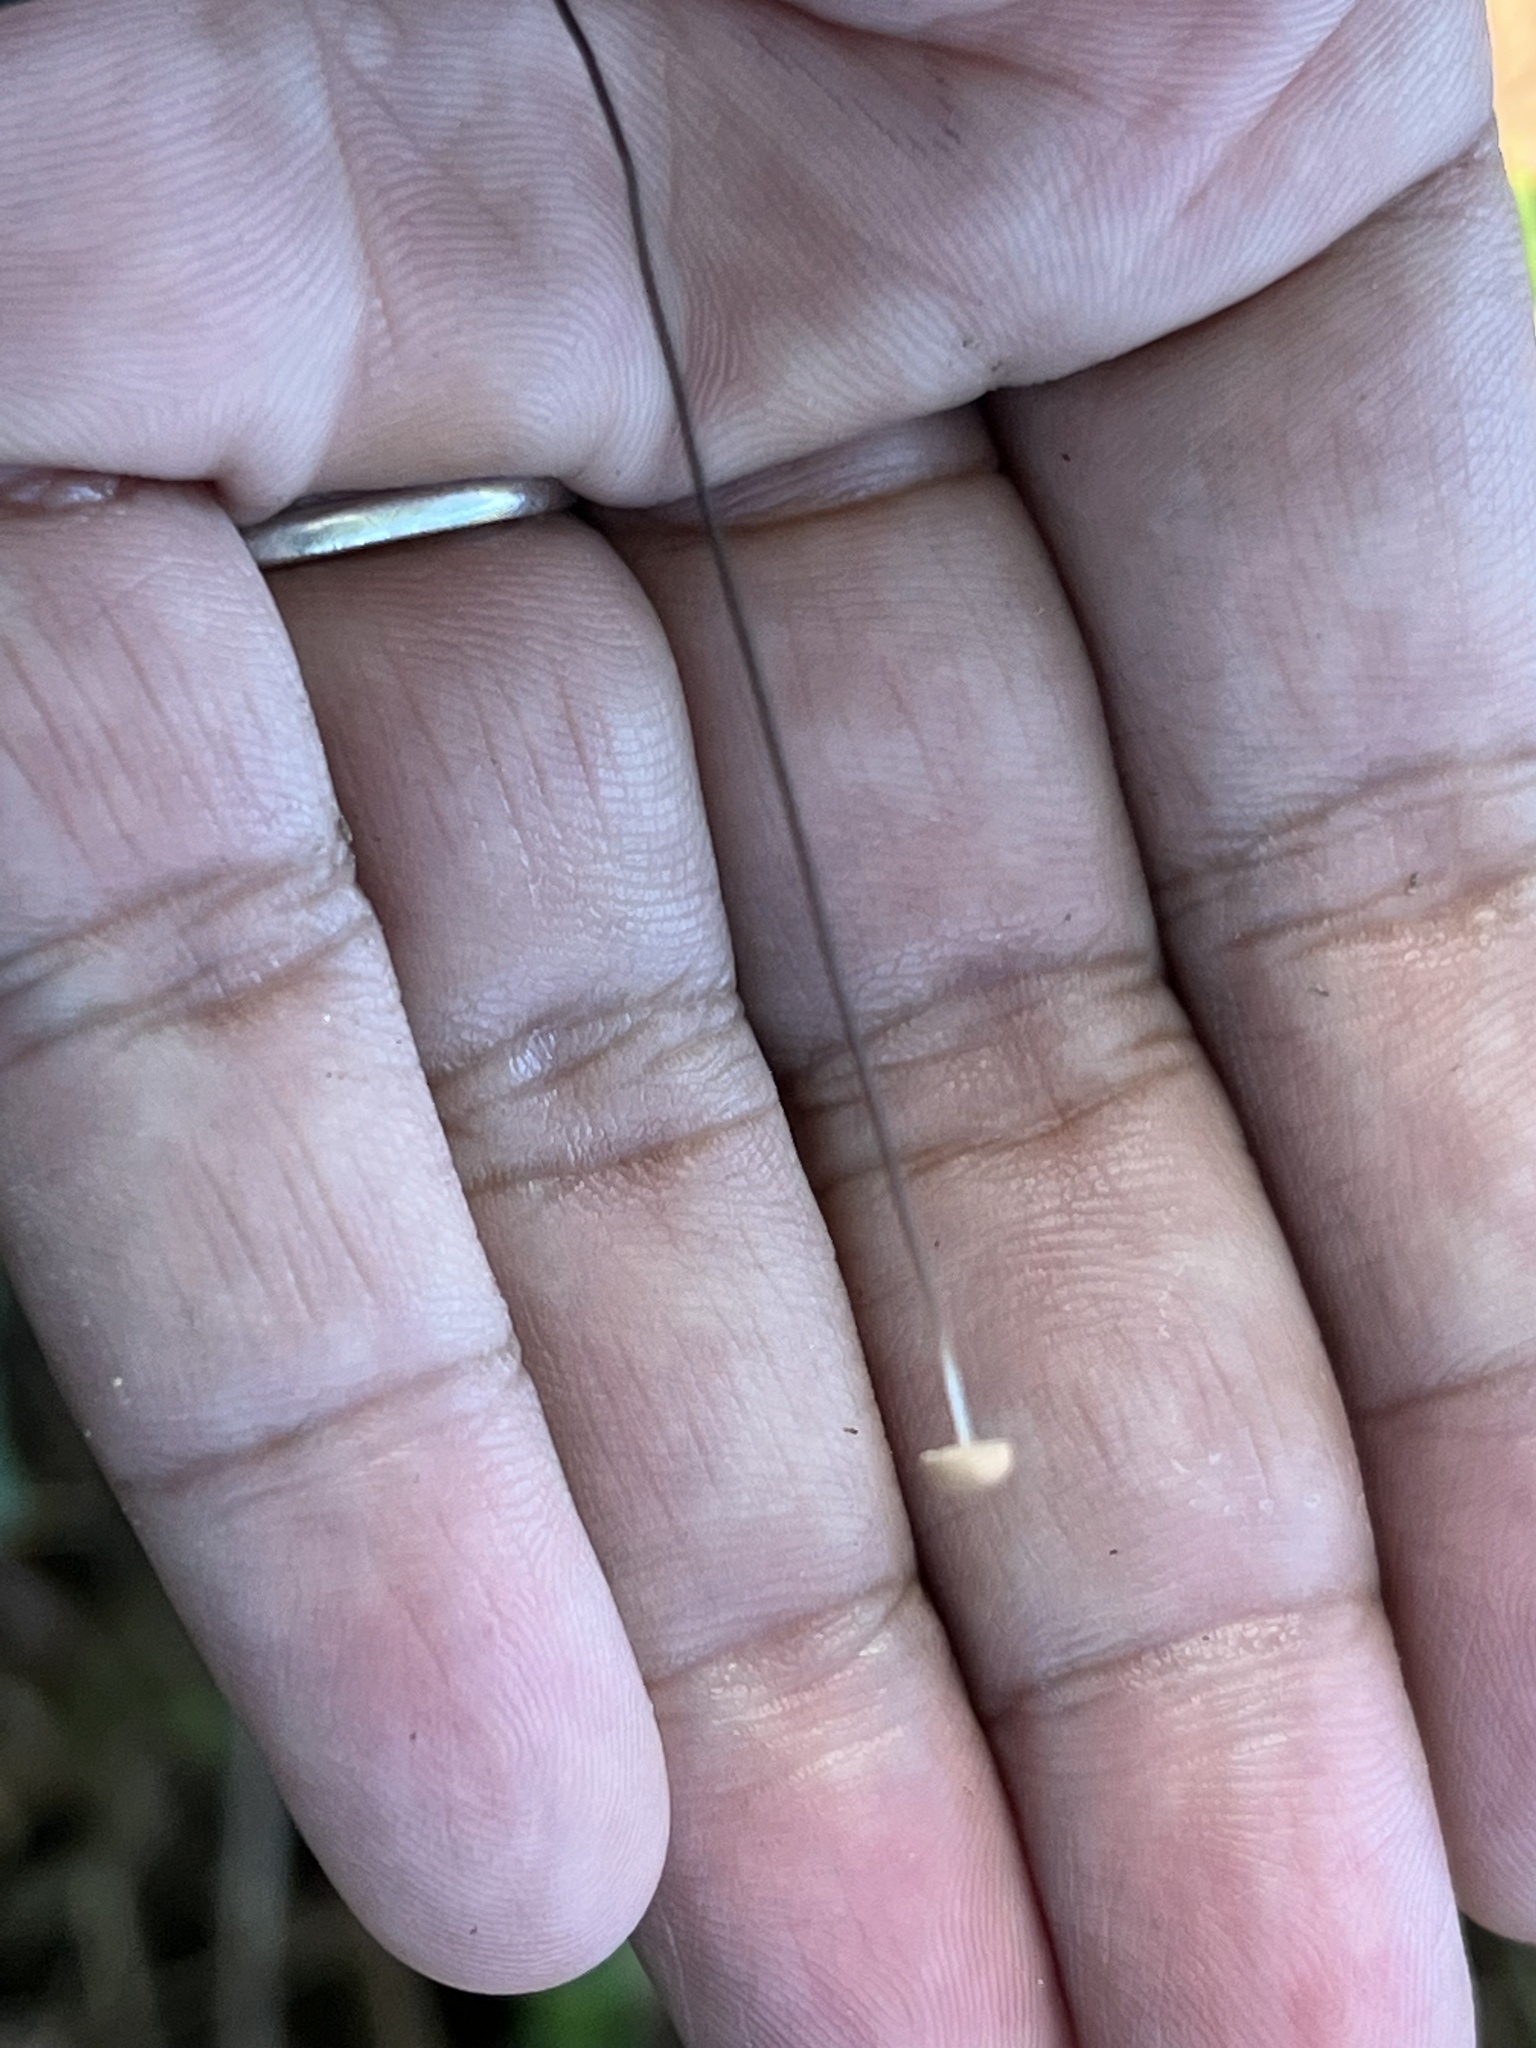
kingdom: Fungi
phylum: Basidiomycota
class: Agaricomycetes
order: Agaricales
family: Marasmiaceae
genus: Marasmius
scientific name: Marasmius felix
